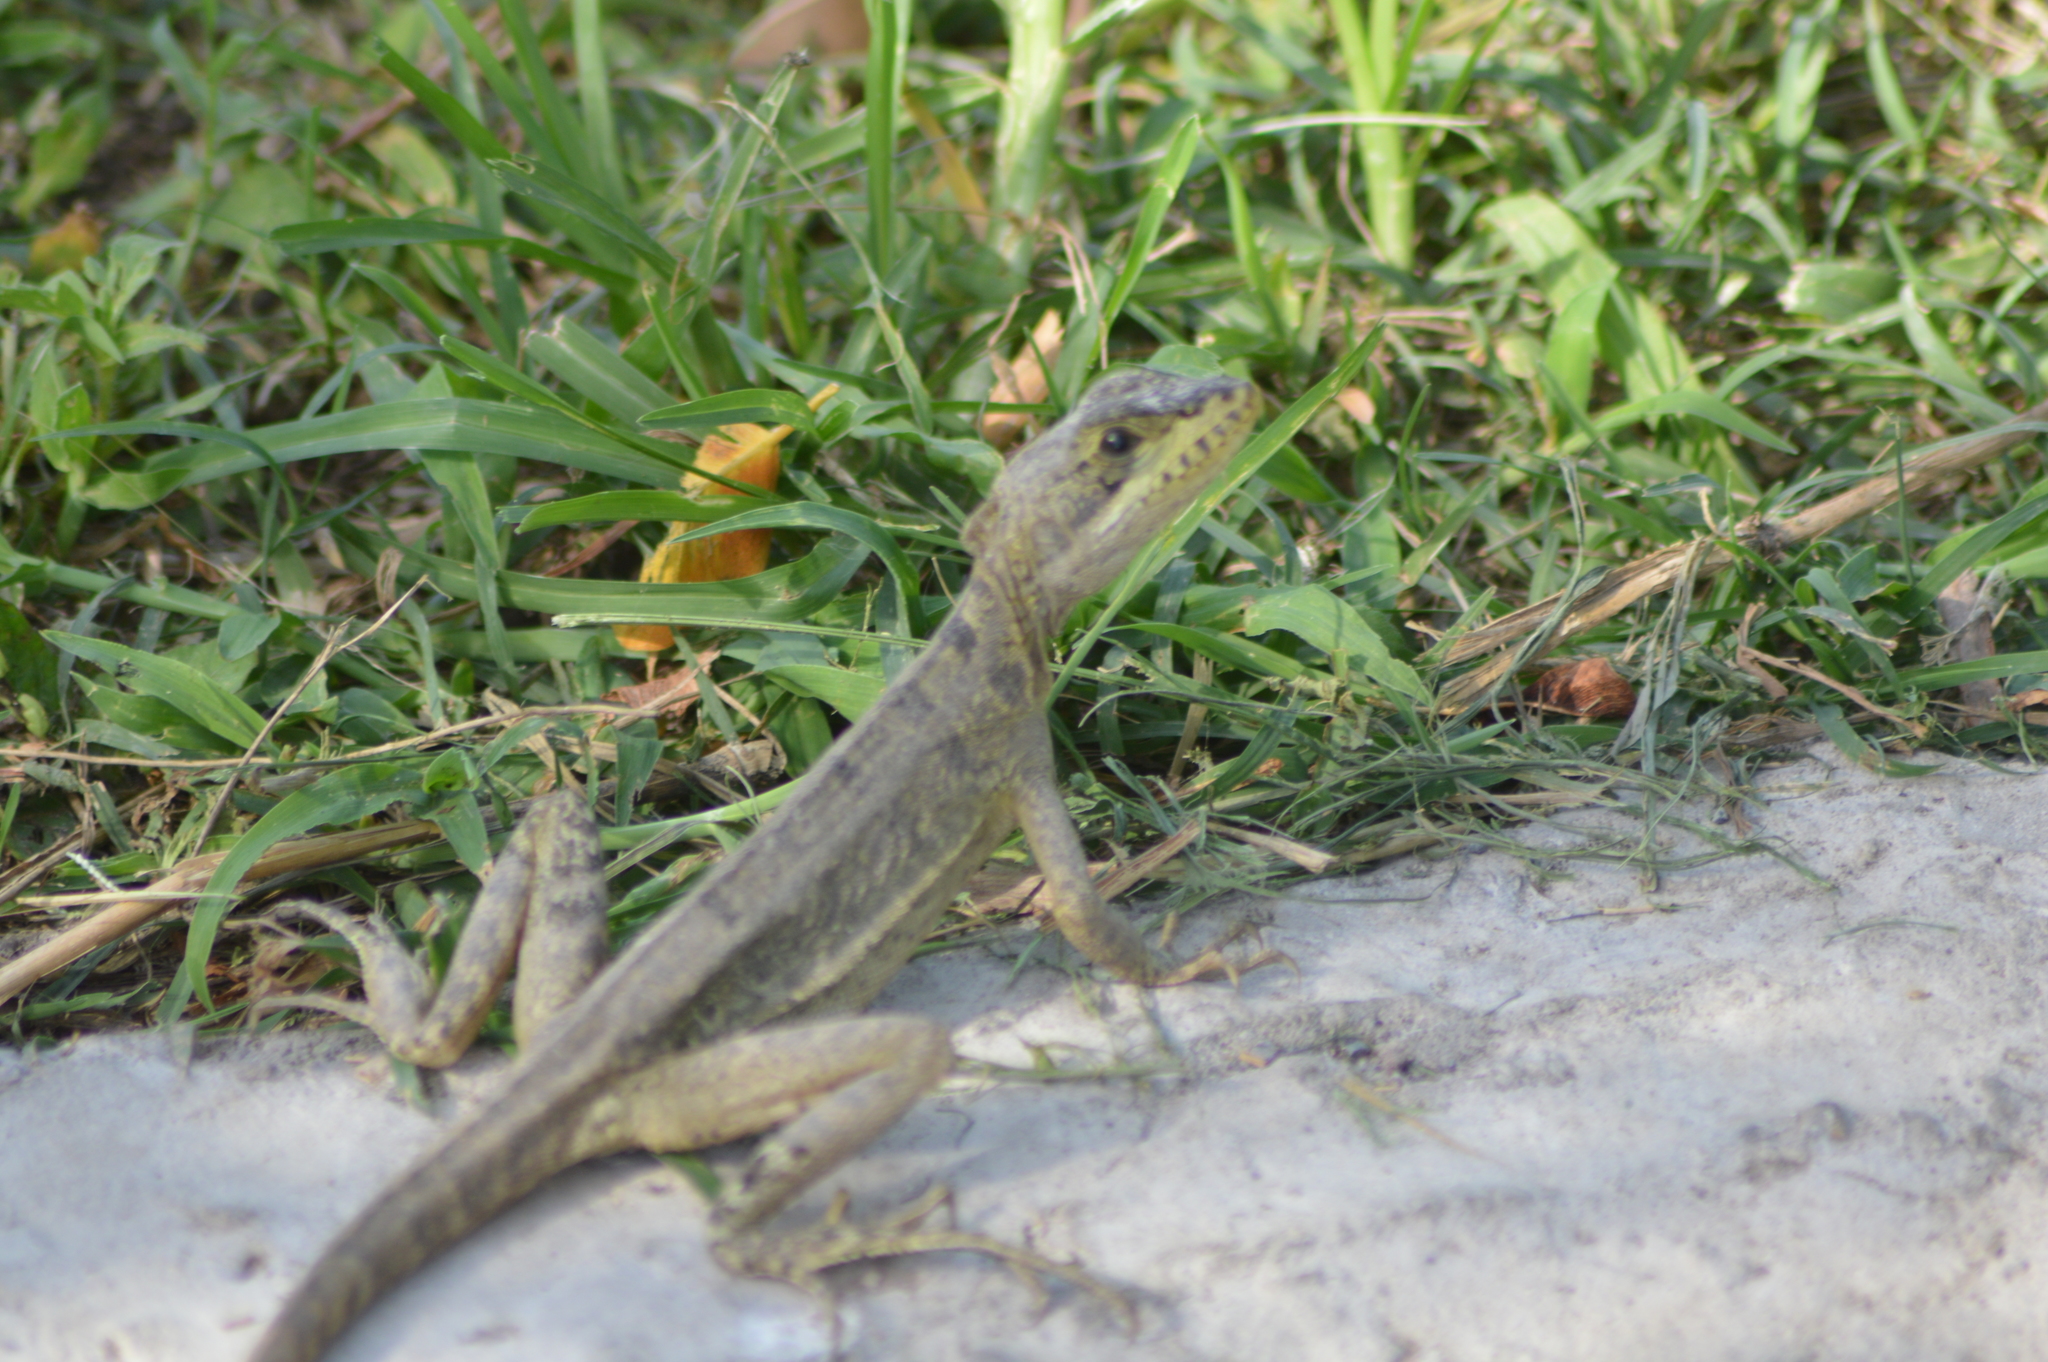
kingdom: Animalia
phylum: Chordata
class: Squamata
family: Corytophanidae
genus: Basiliscus
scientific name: Basiliscus vittatus
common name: Brown basilisk
